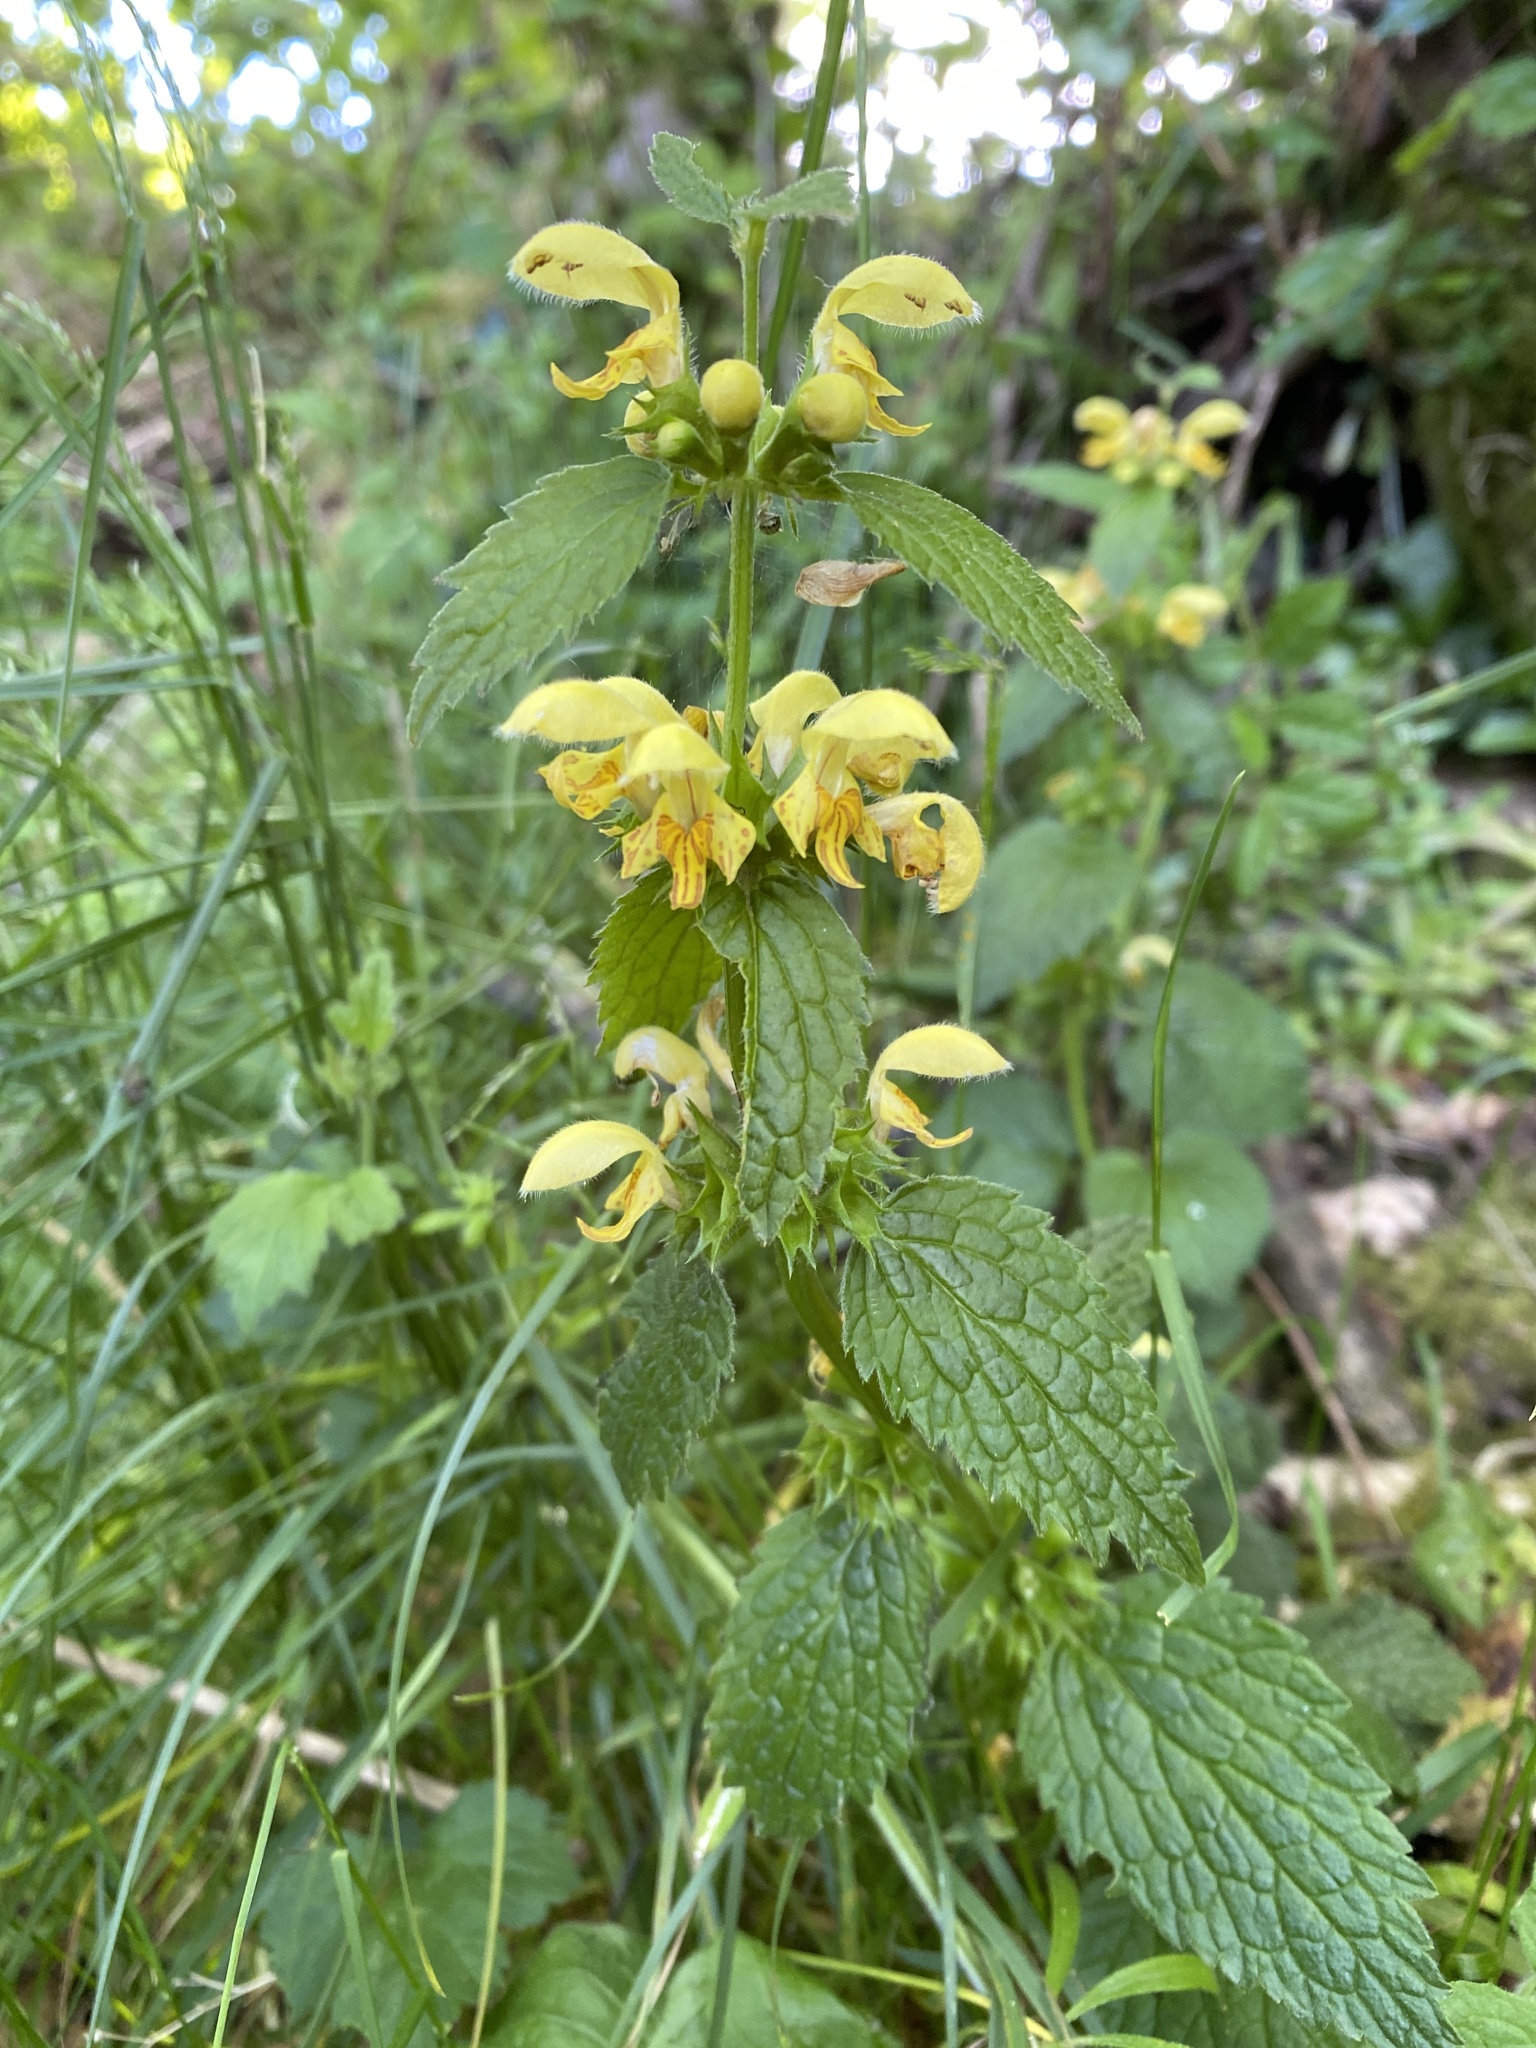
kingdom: Plantae
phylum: Tracheophyta
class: Magnoliopsida
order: Lamiales
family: Lamiaceae
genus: Lamium
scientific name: Lamium galeobdolon
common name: Yellow archangel
